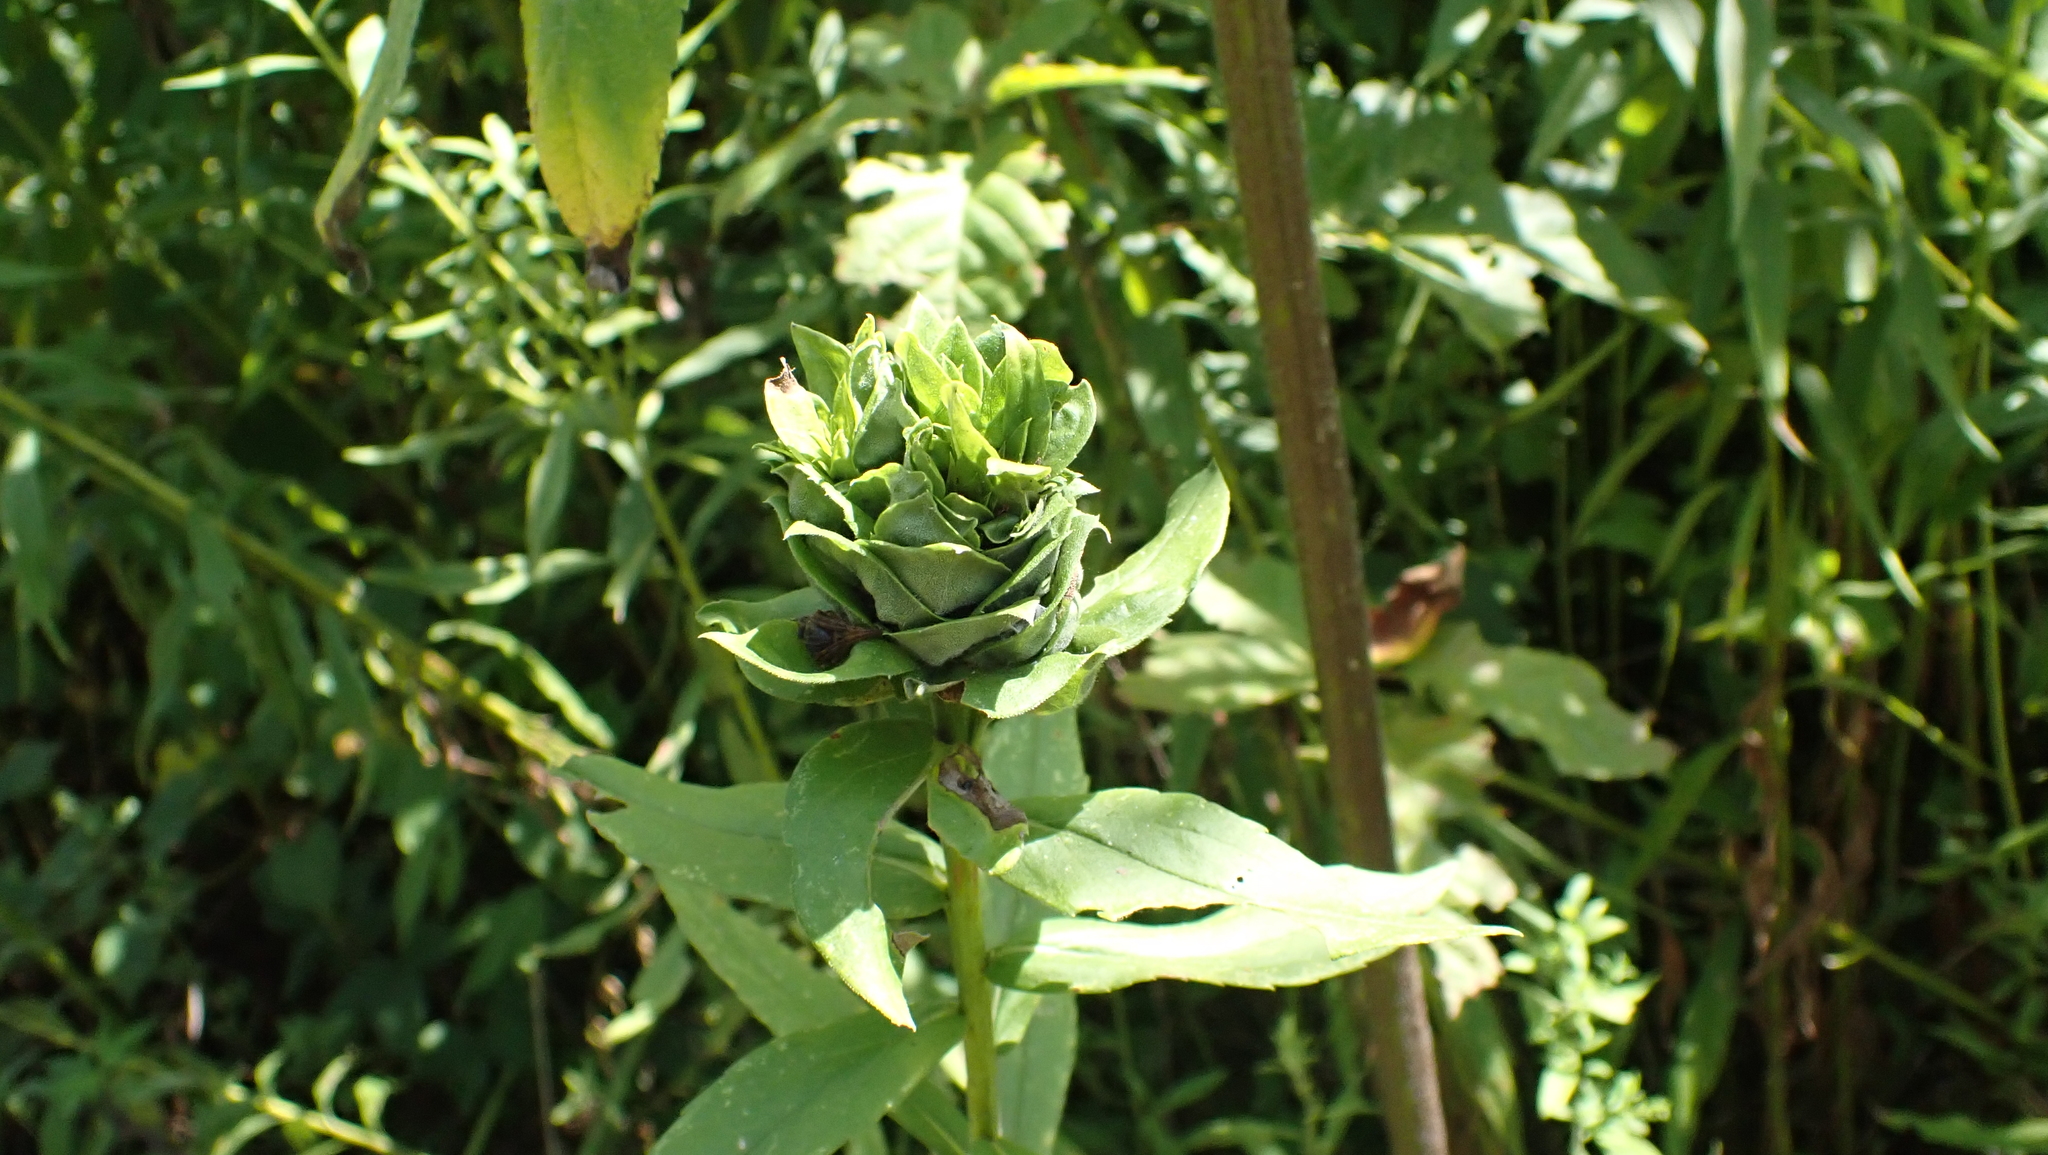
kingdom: Animalia
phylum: Arthropoda
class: Insecta
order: Diptera
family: Cecidomyiidae
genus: Rhopalomyia
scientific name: Rhopalomyia solidaginis
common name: Goldenrod bunch gall midge
